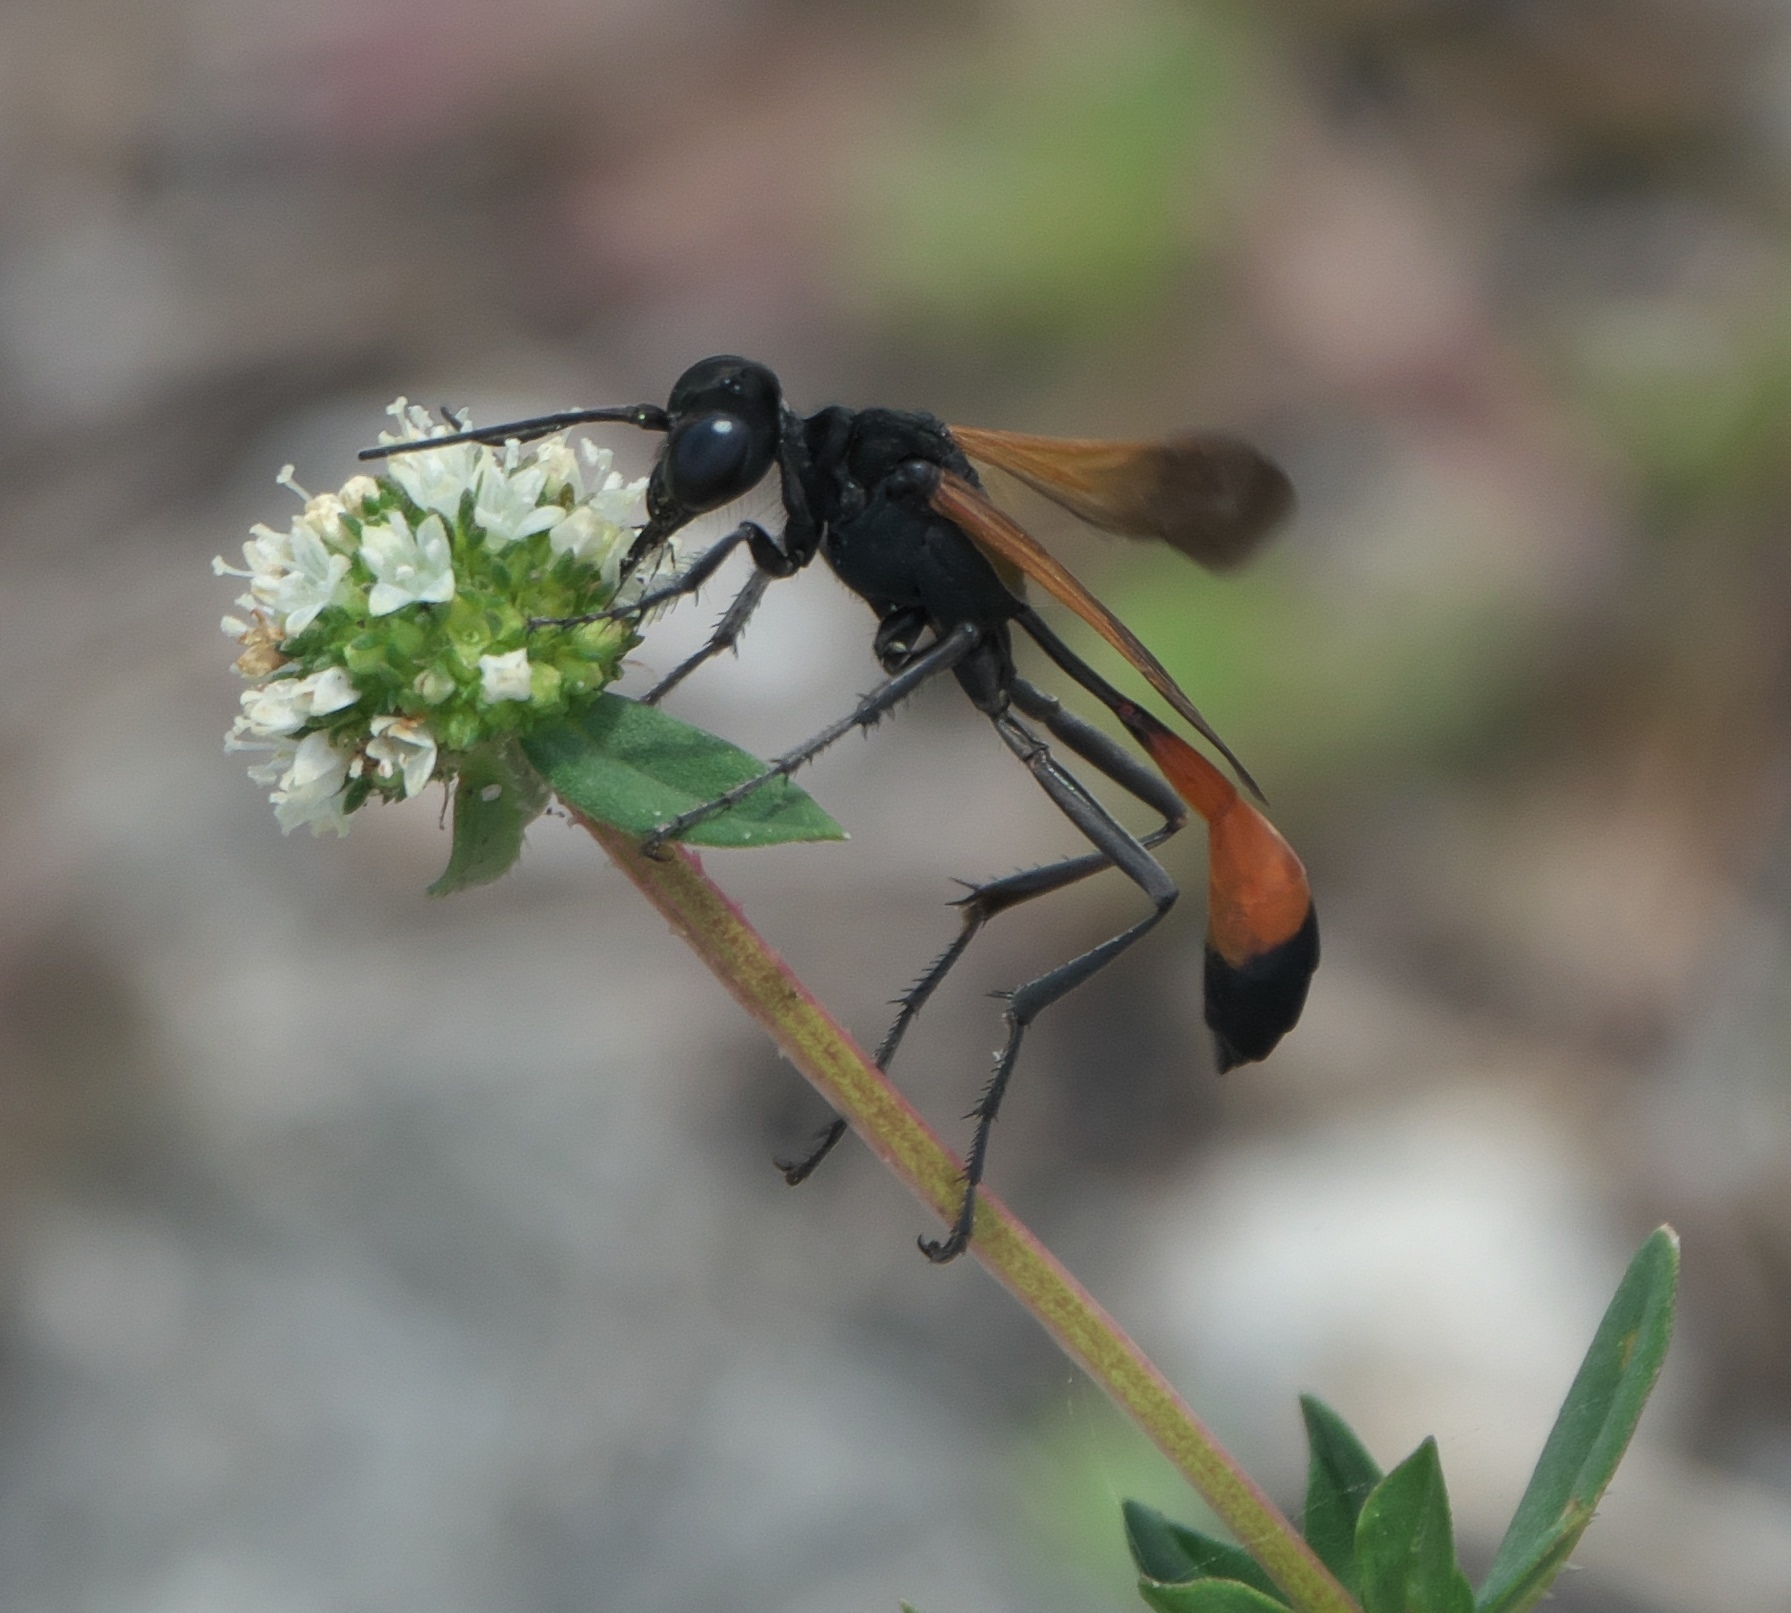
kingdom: Animalia
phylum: Arthropoda
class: Insecta
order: Hymenoptera
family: Sphecidae
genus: Ammophila
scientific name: Ammophila pictipennis
